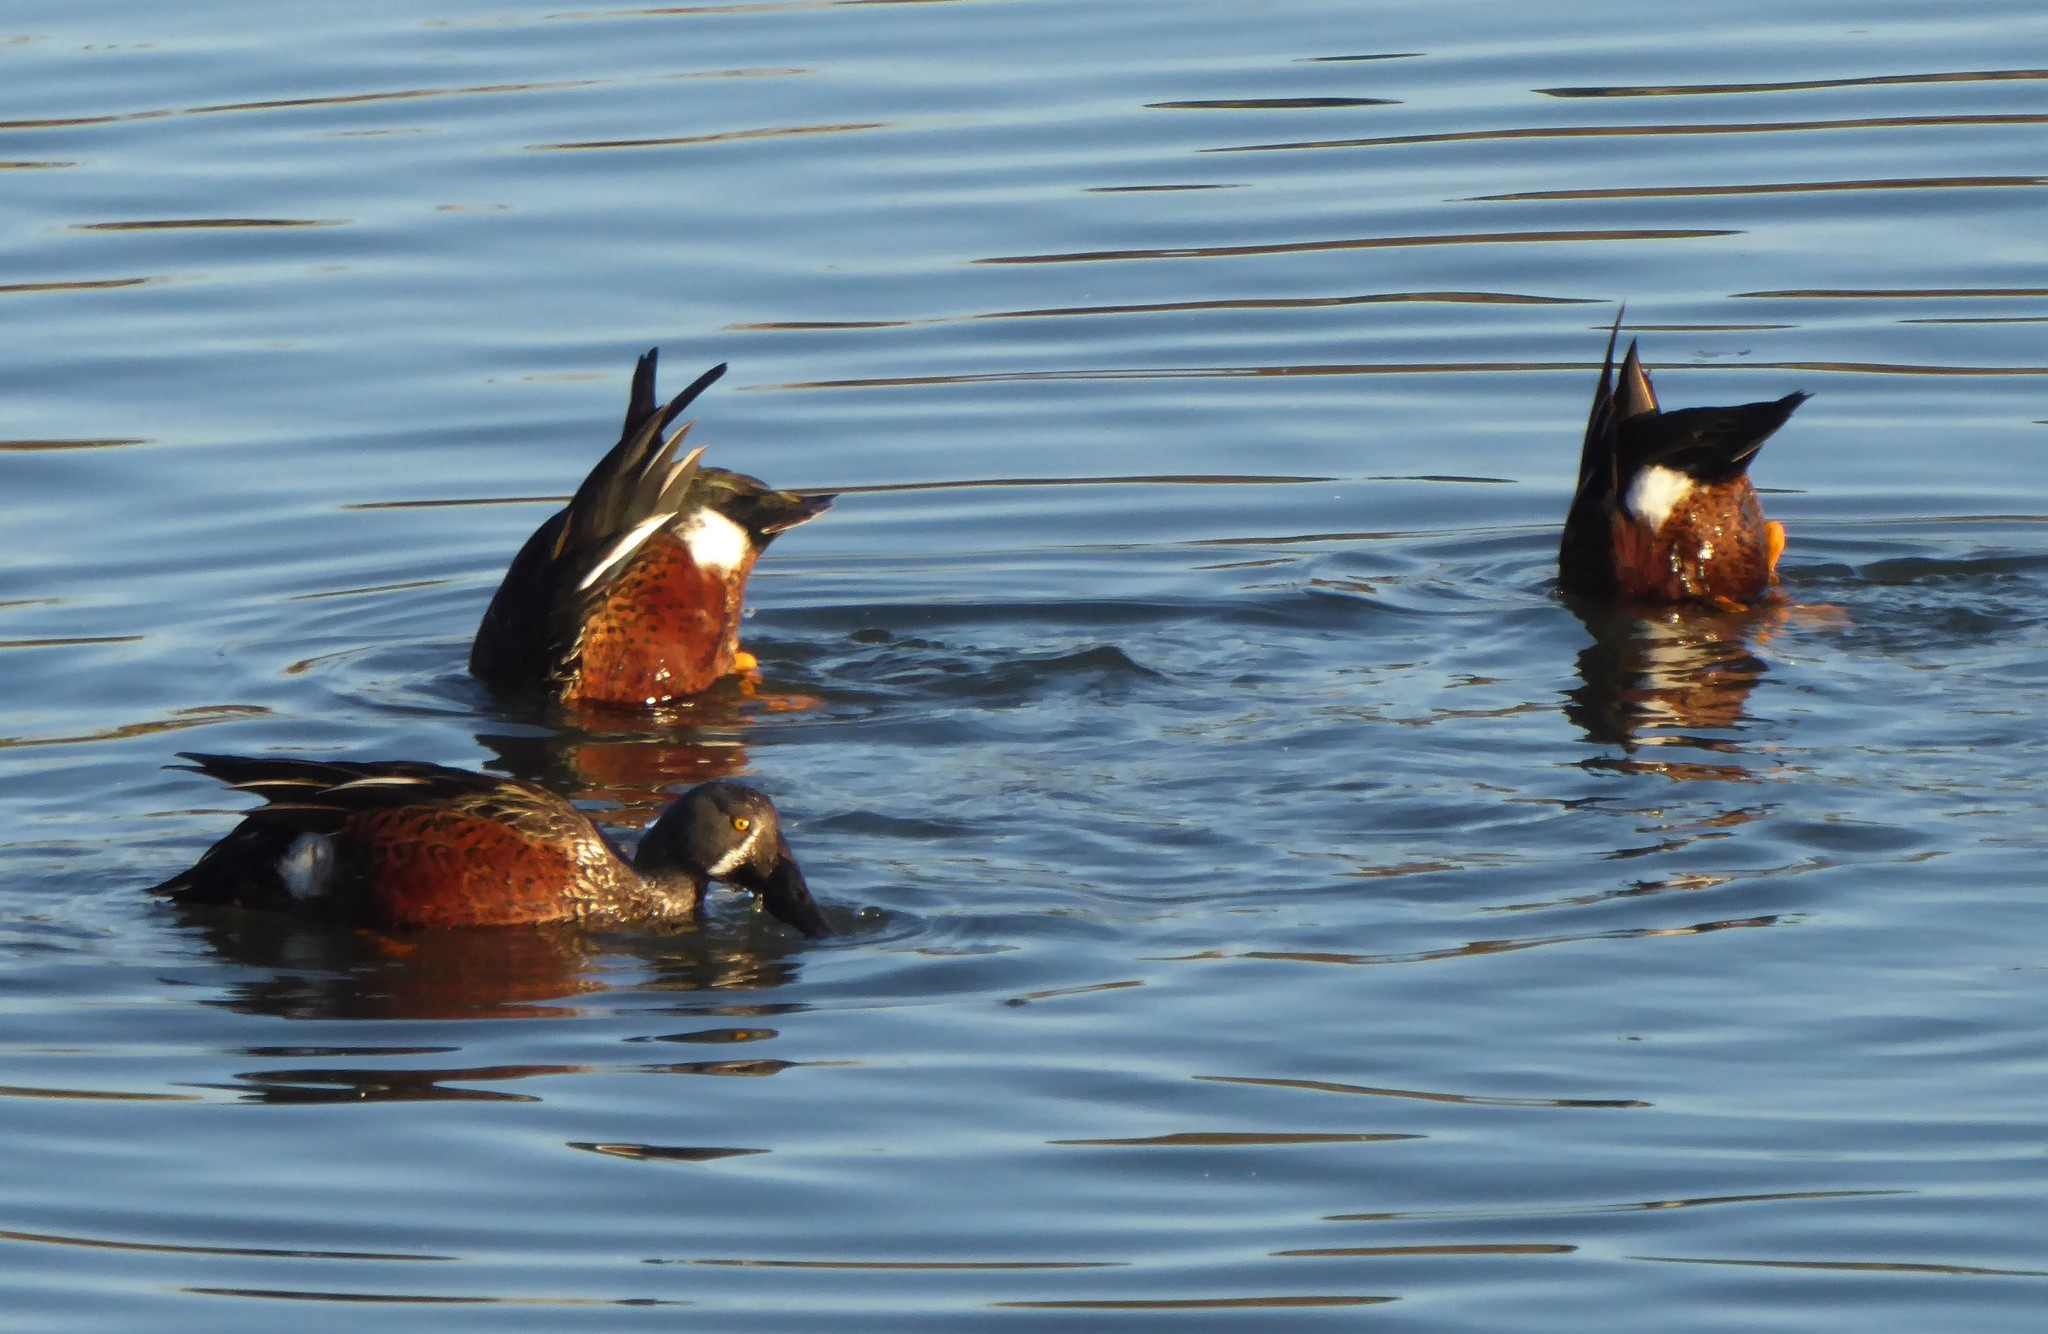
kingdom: Animalia
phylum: Chordata
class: Aves
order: Anseriformes
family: Anatidae
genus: Spatula
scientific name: Spatula rhynchotis
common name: Australian shoveler
